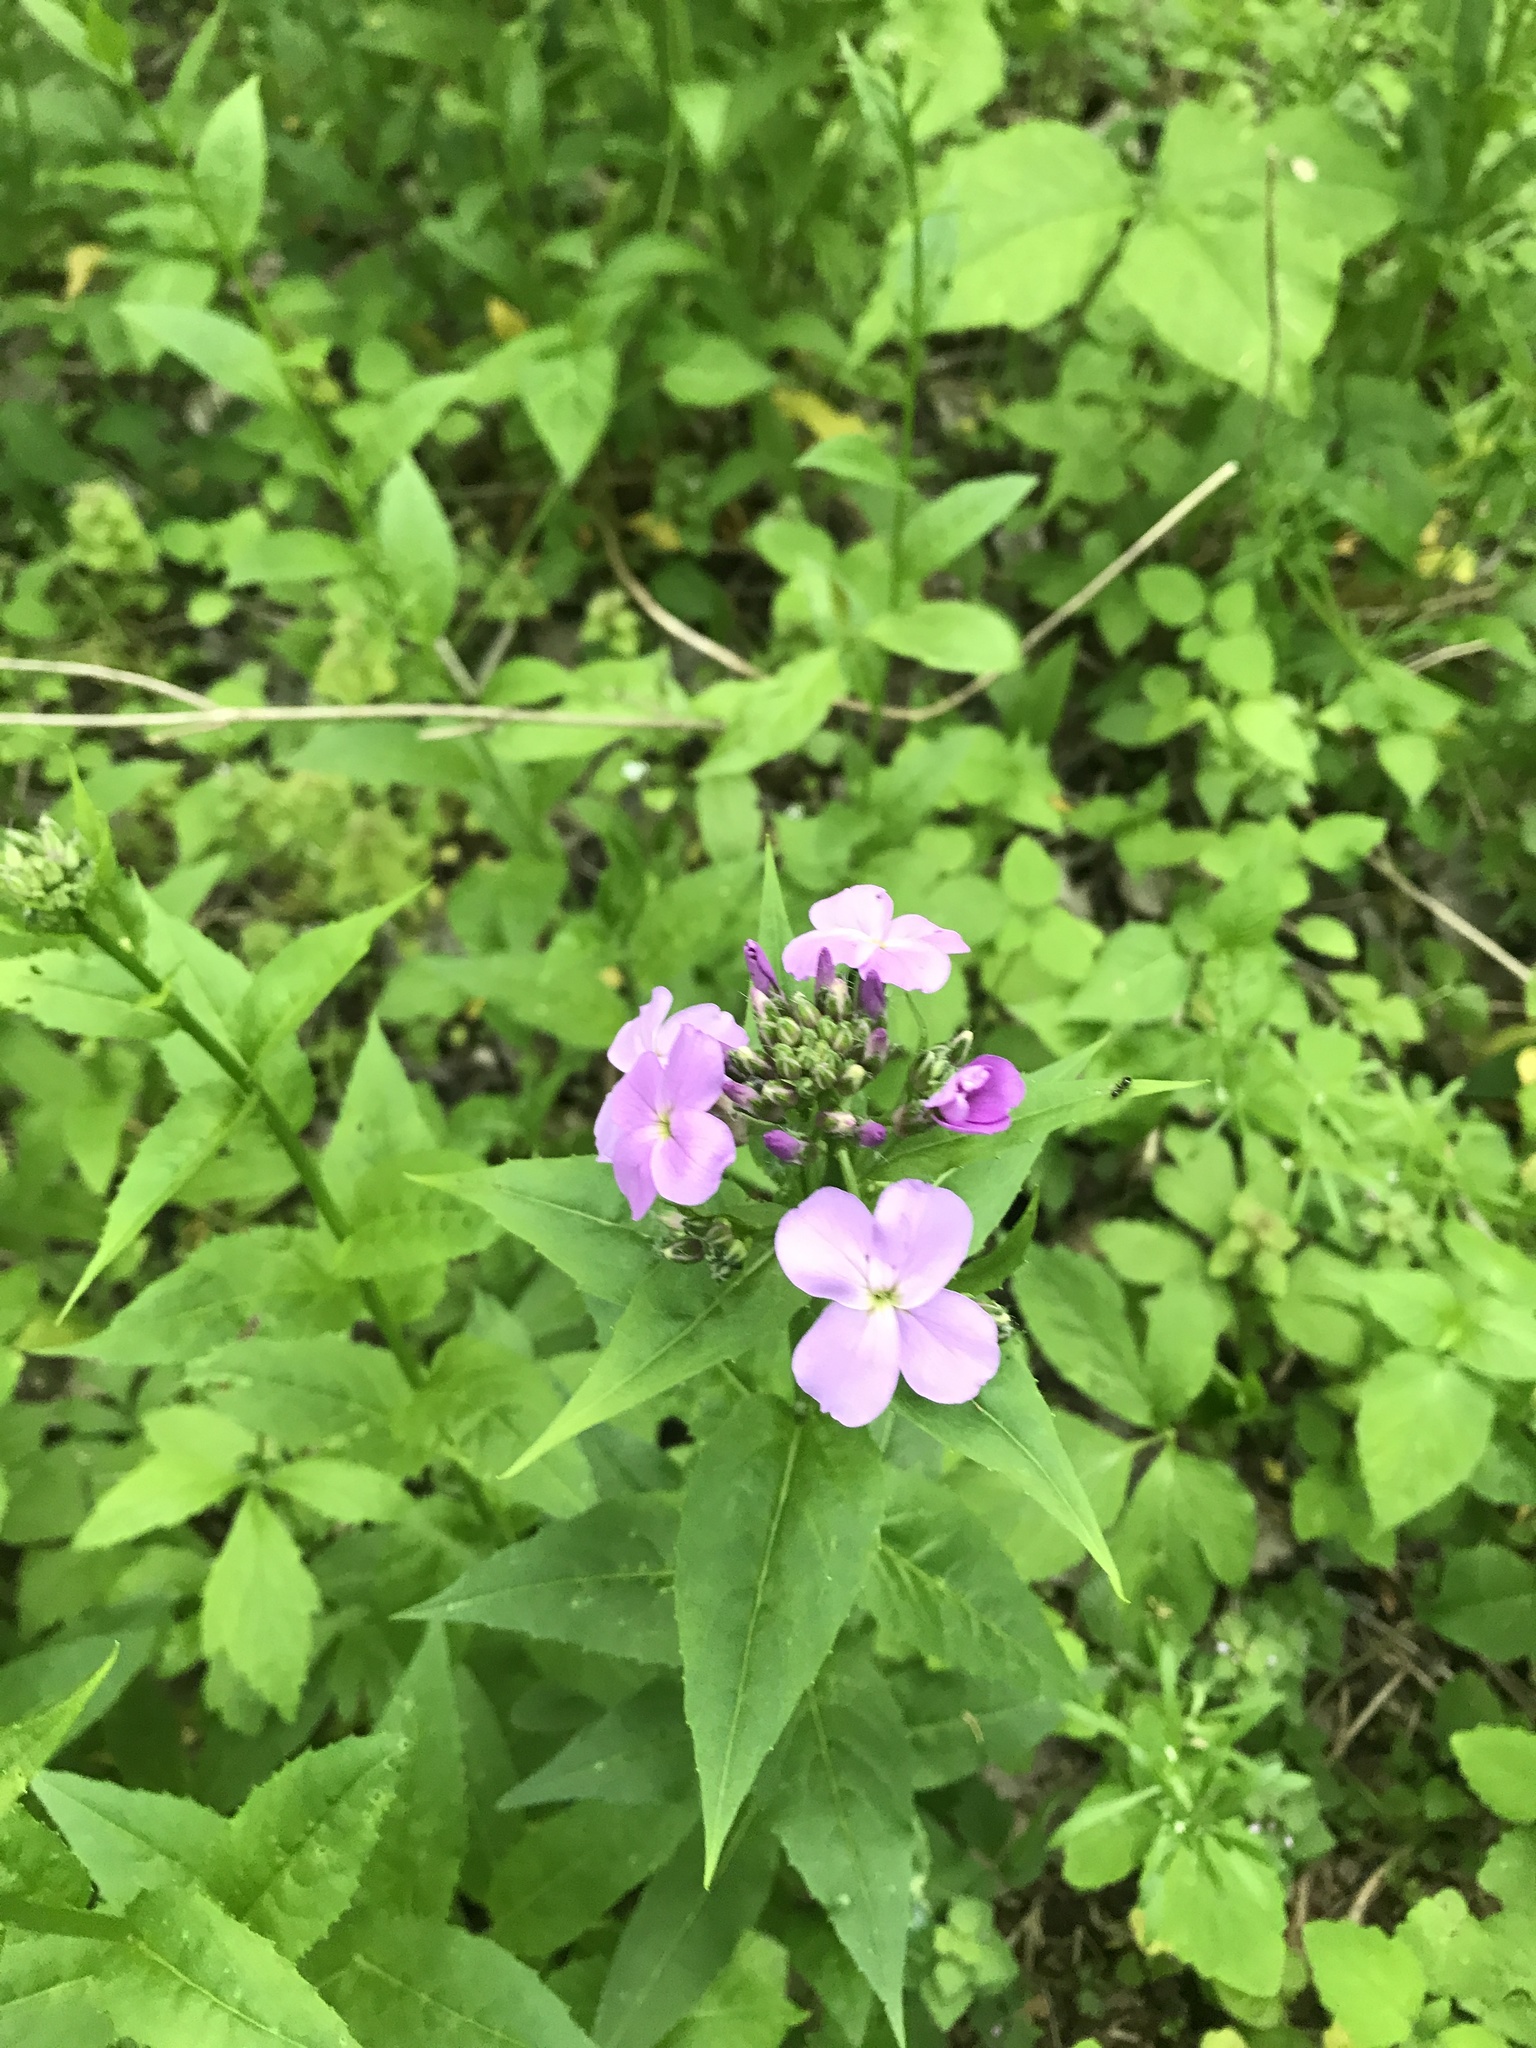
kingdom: Plantae
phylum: Tracheophyta
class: Magnoliopsida
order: Brassicales
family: Brassicaceae
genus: Hesperis
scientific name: Hesperis matronalis
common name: Dame's-violet
